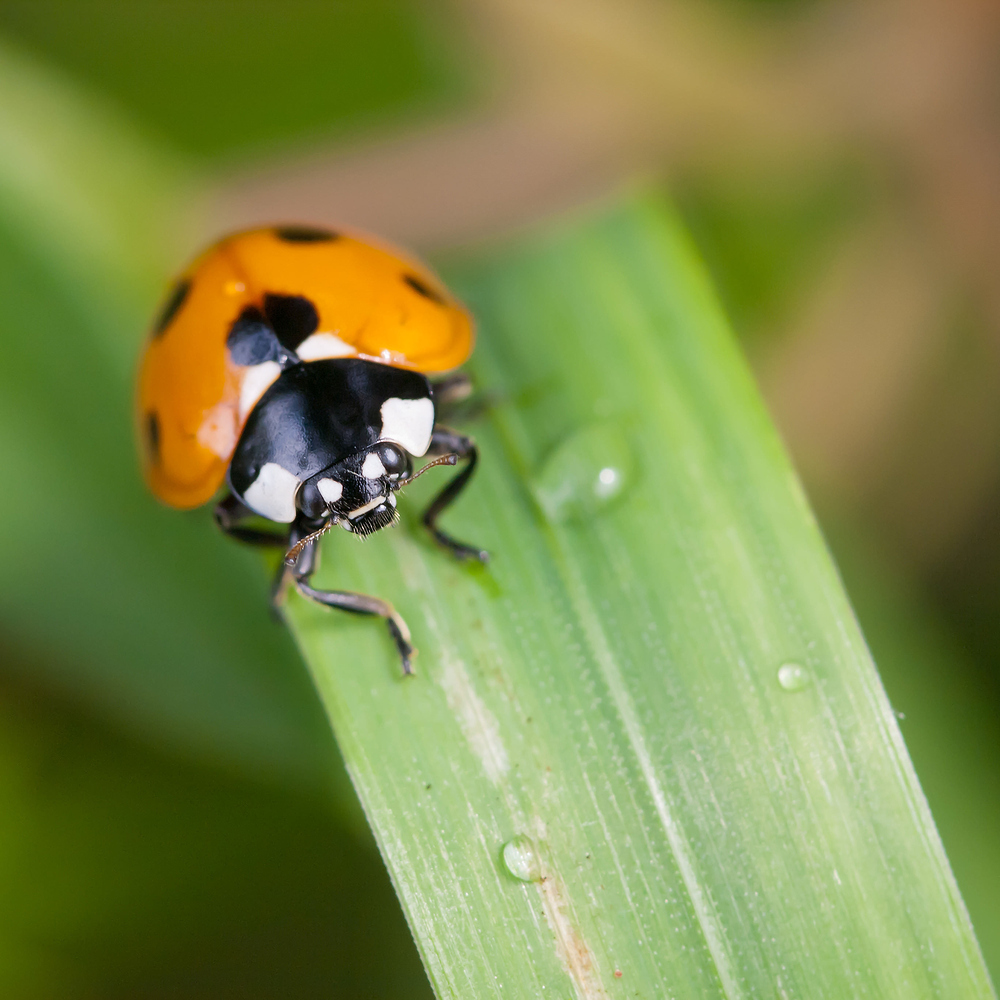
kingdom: Animalia
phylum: Arthropoda
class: Insecta
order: Coleoptera
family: Coccinellidae
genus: Coccinella
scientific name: Coccinella septempunctata
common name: Sevenspotted lady beetle
